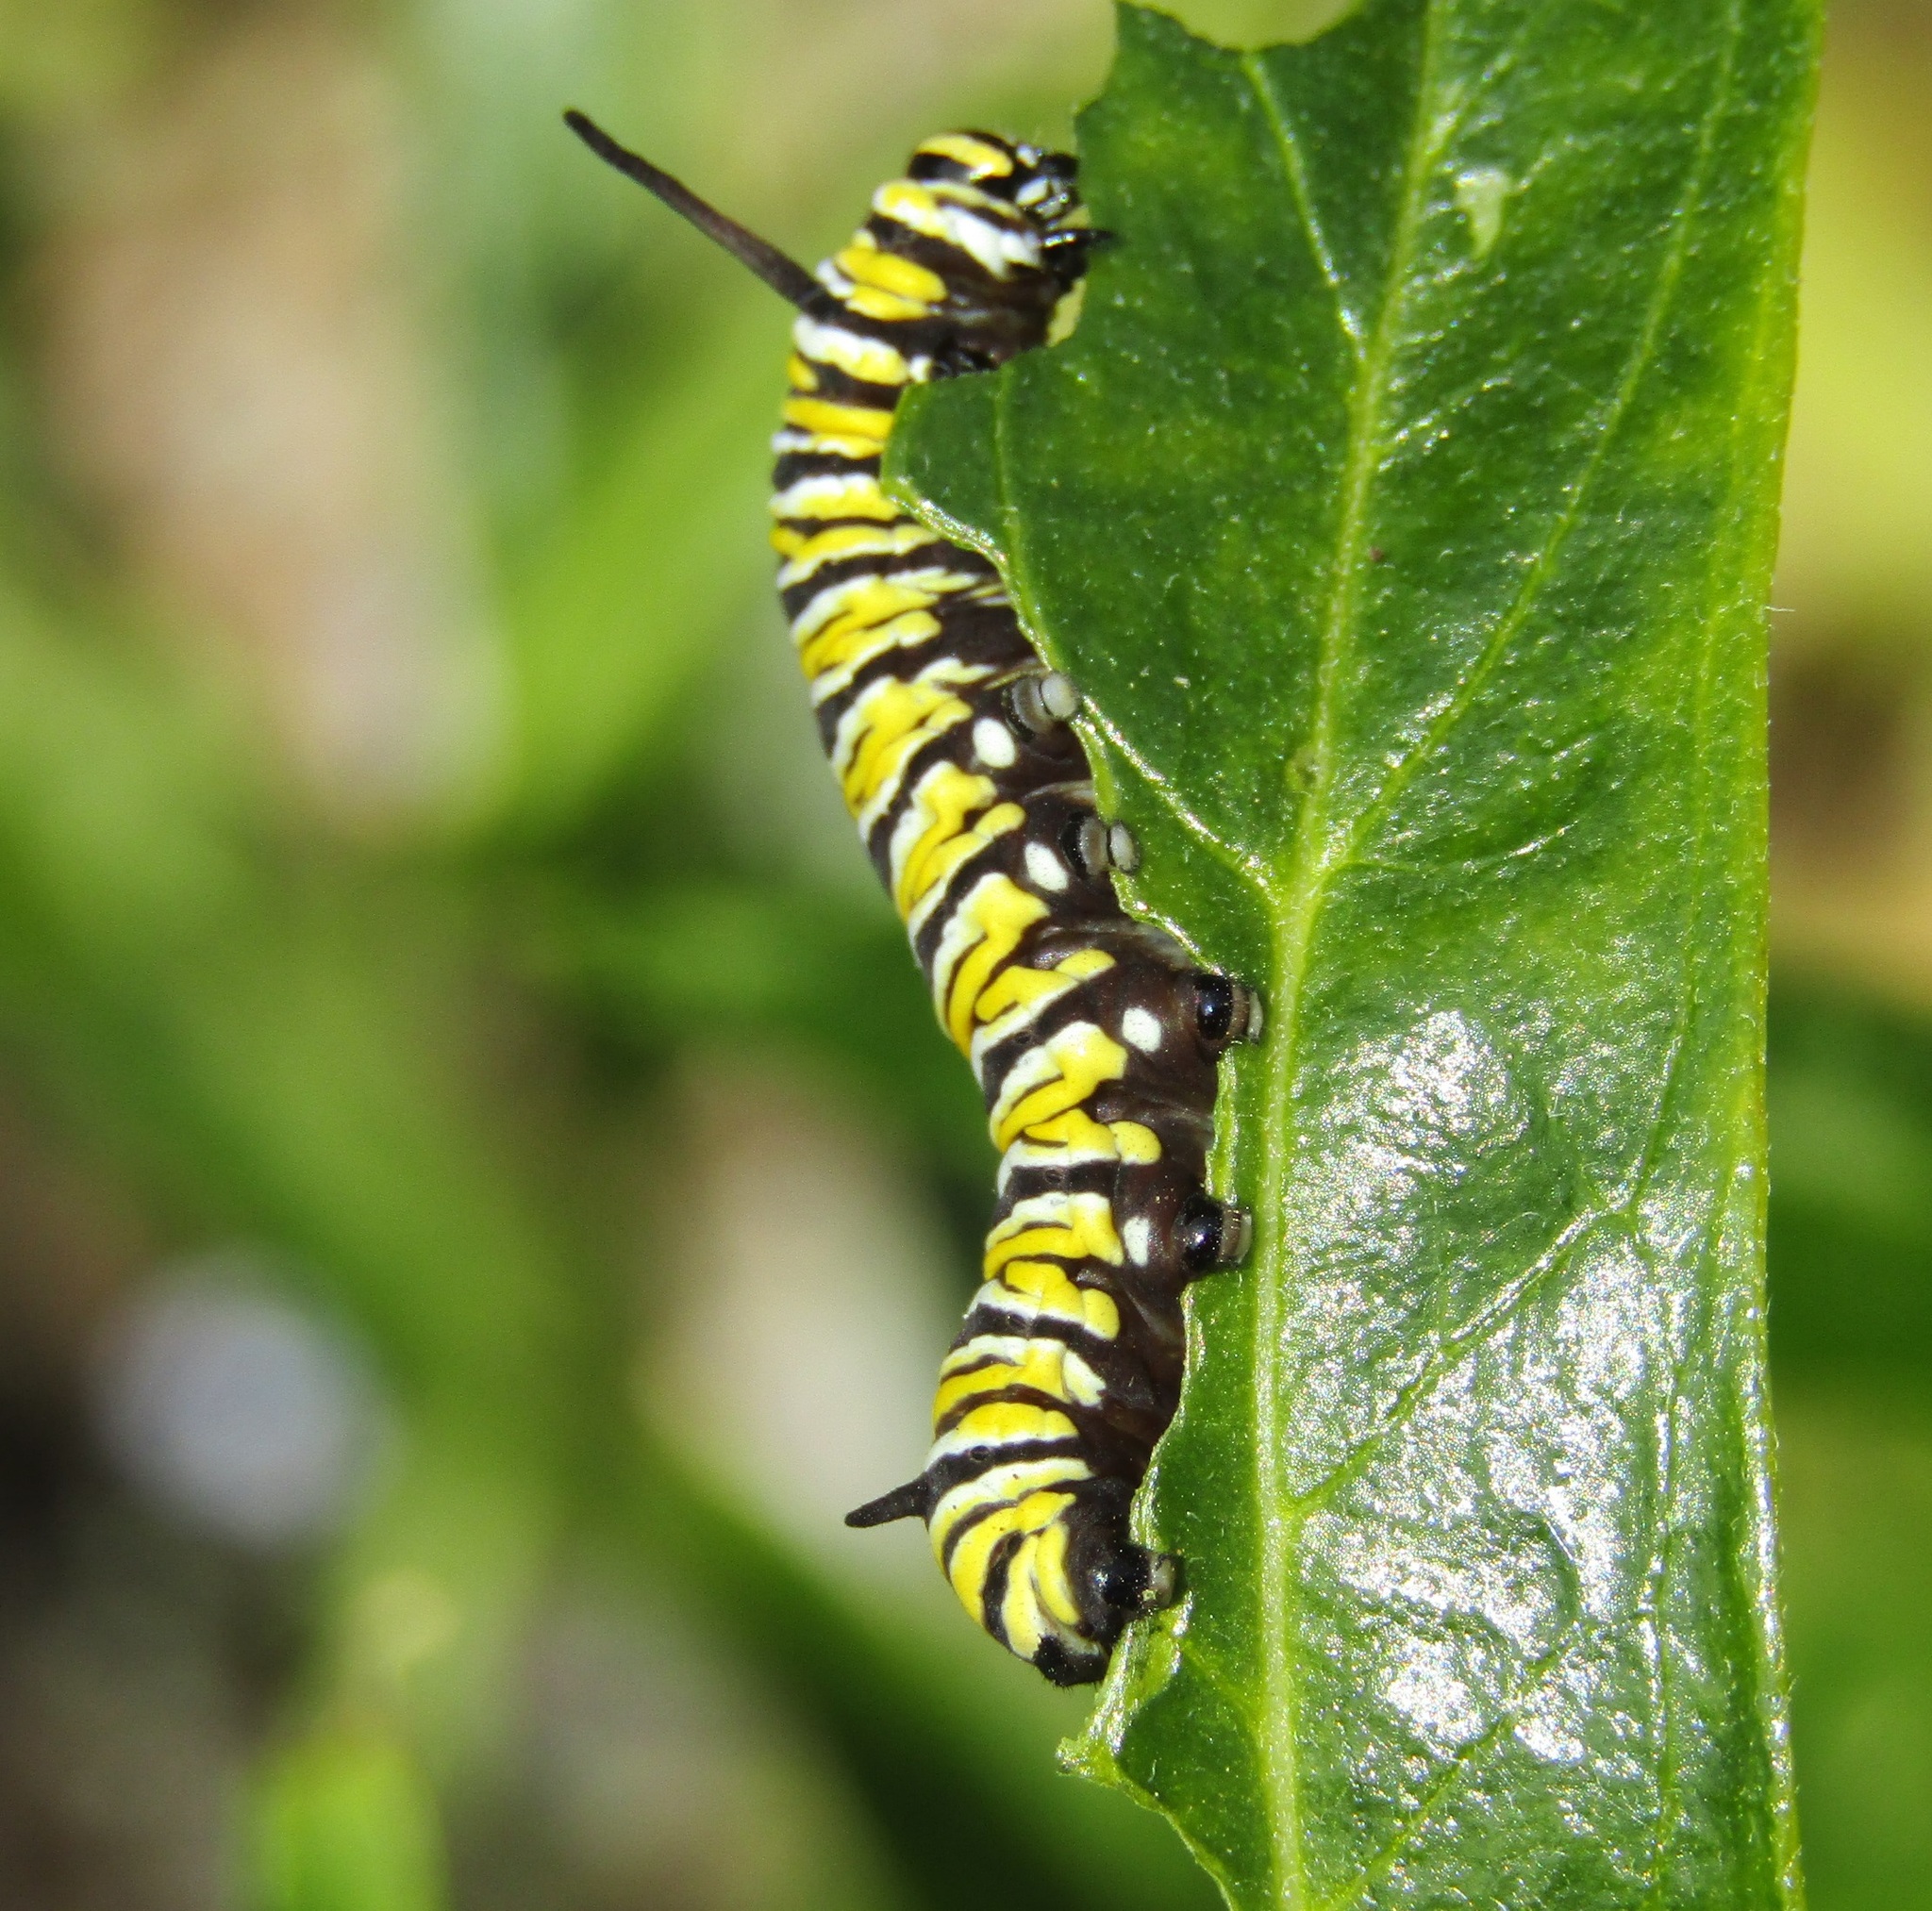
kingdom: Animalia
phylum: Arthropoda
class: Insecta
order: Lepidoptera
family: Nymphalidae
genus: Danaus
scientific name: Danaus plexippus
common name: Monarch
